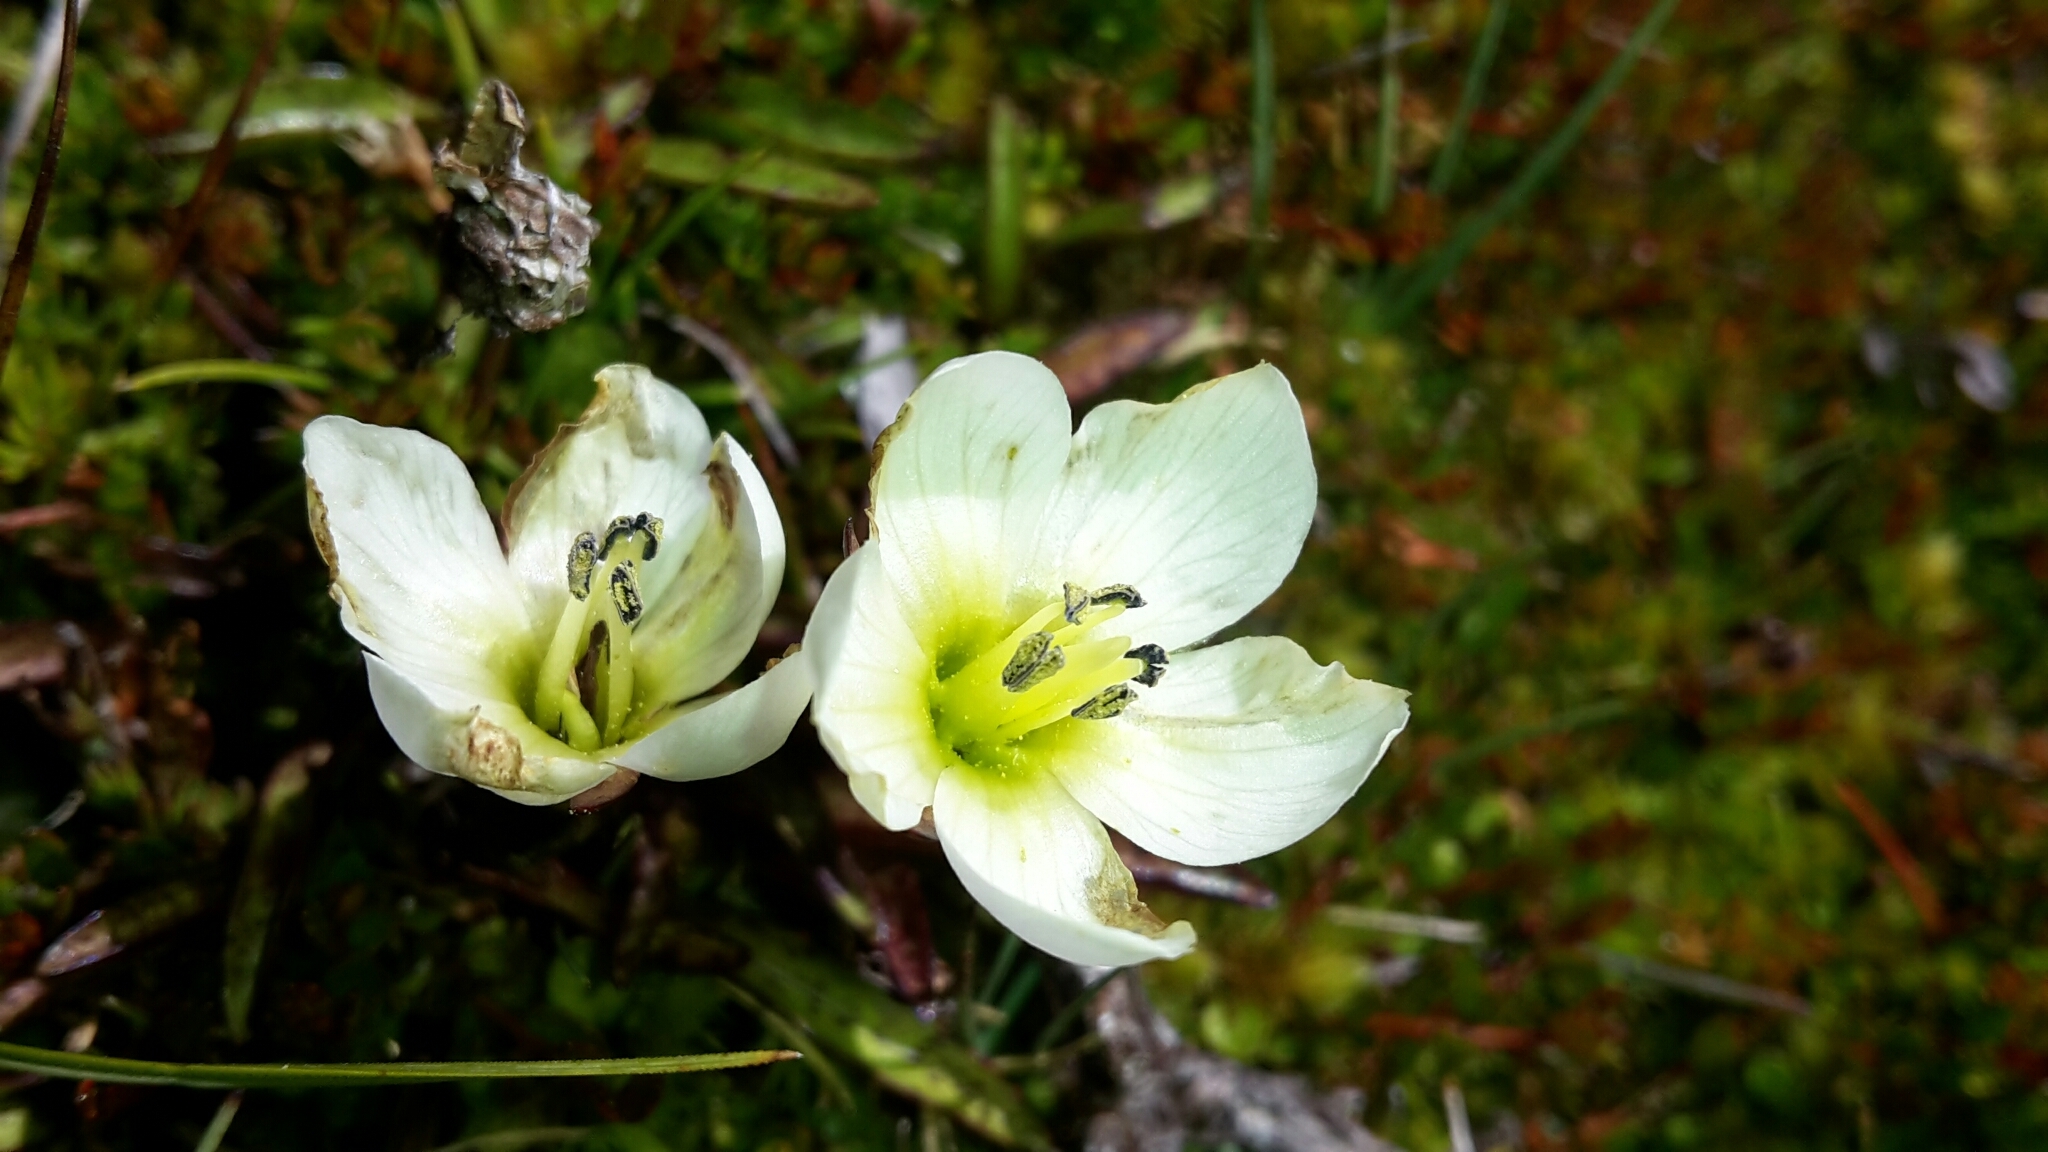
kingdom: Plantae
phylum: Tracheophyta
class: Magnoliopsida
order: Gentianales
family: Gentianaceae
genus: Gentianella
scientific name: Gentianella amabilis
